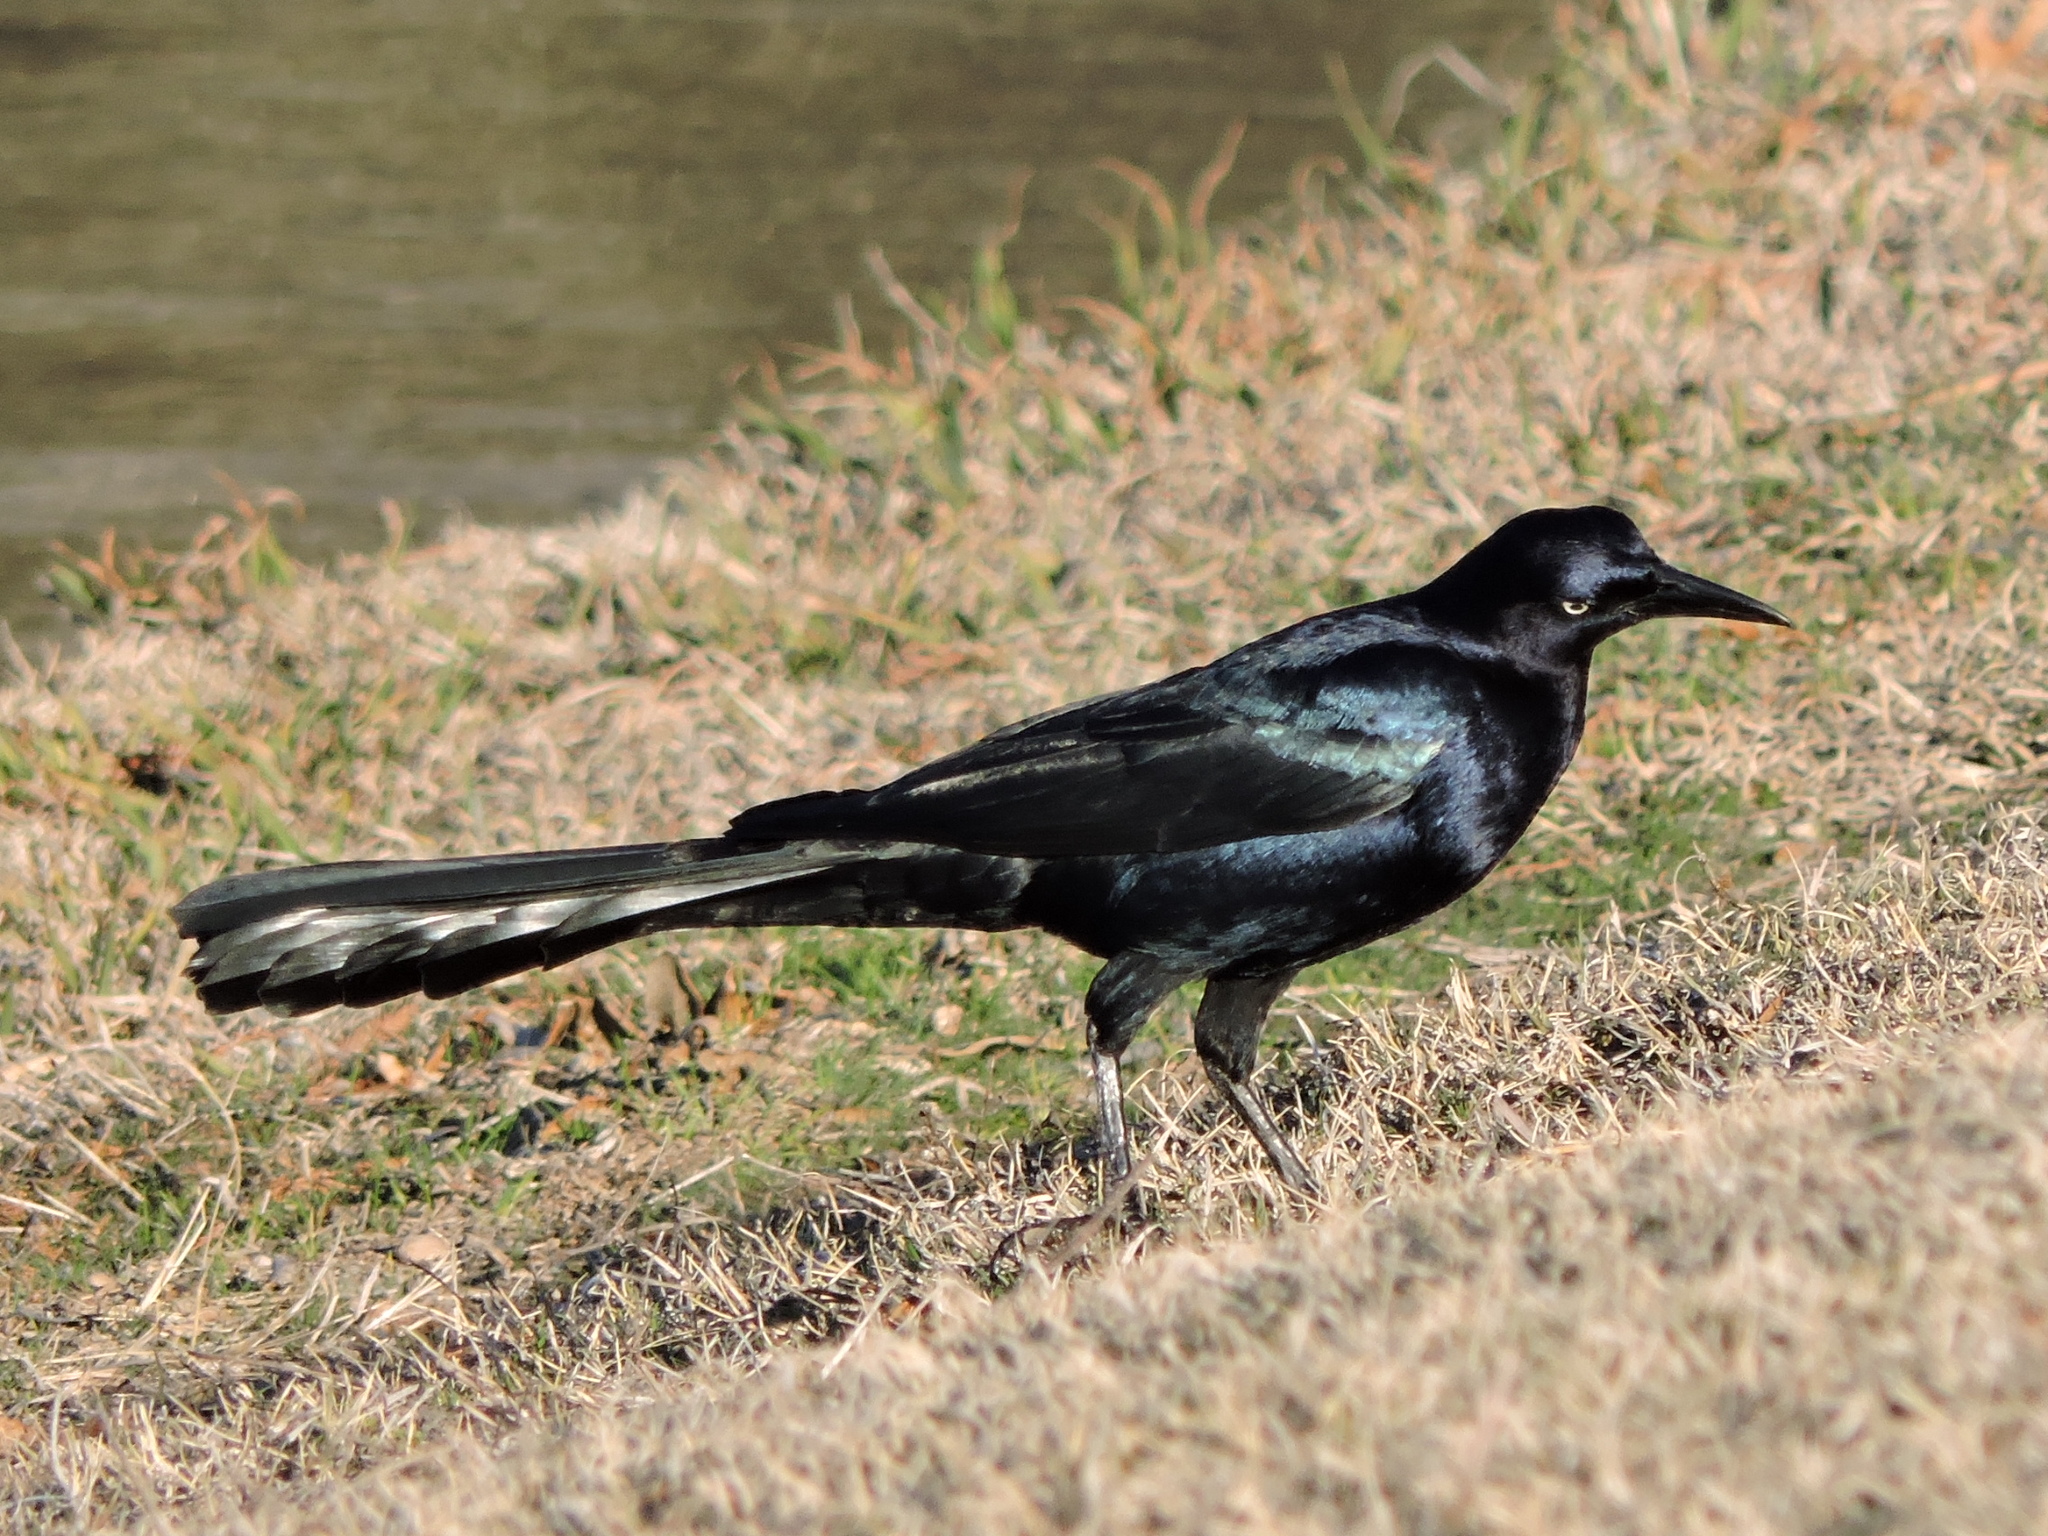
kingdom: Animalia
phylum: Chordata
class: Aves
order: Passeriformes
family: Icteridae
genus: Quiscalus
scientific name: Quiscalus mexicanus
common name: Great-tailed grackle
